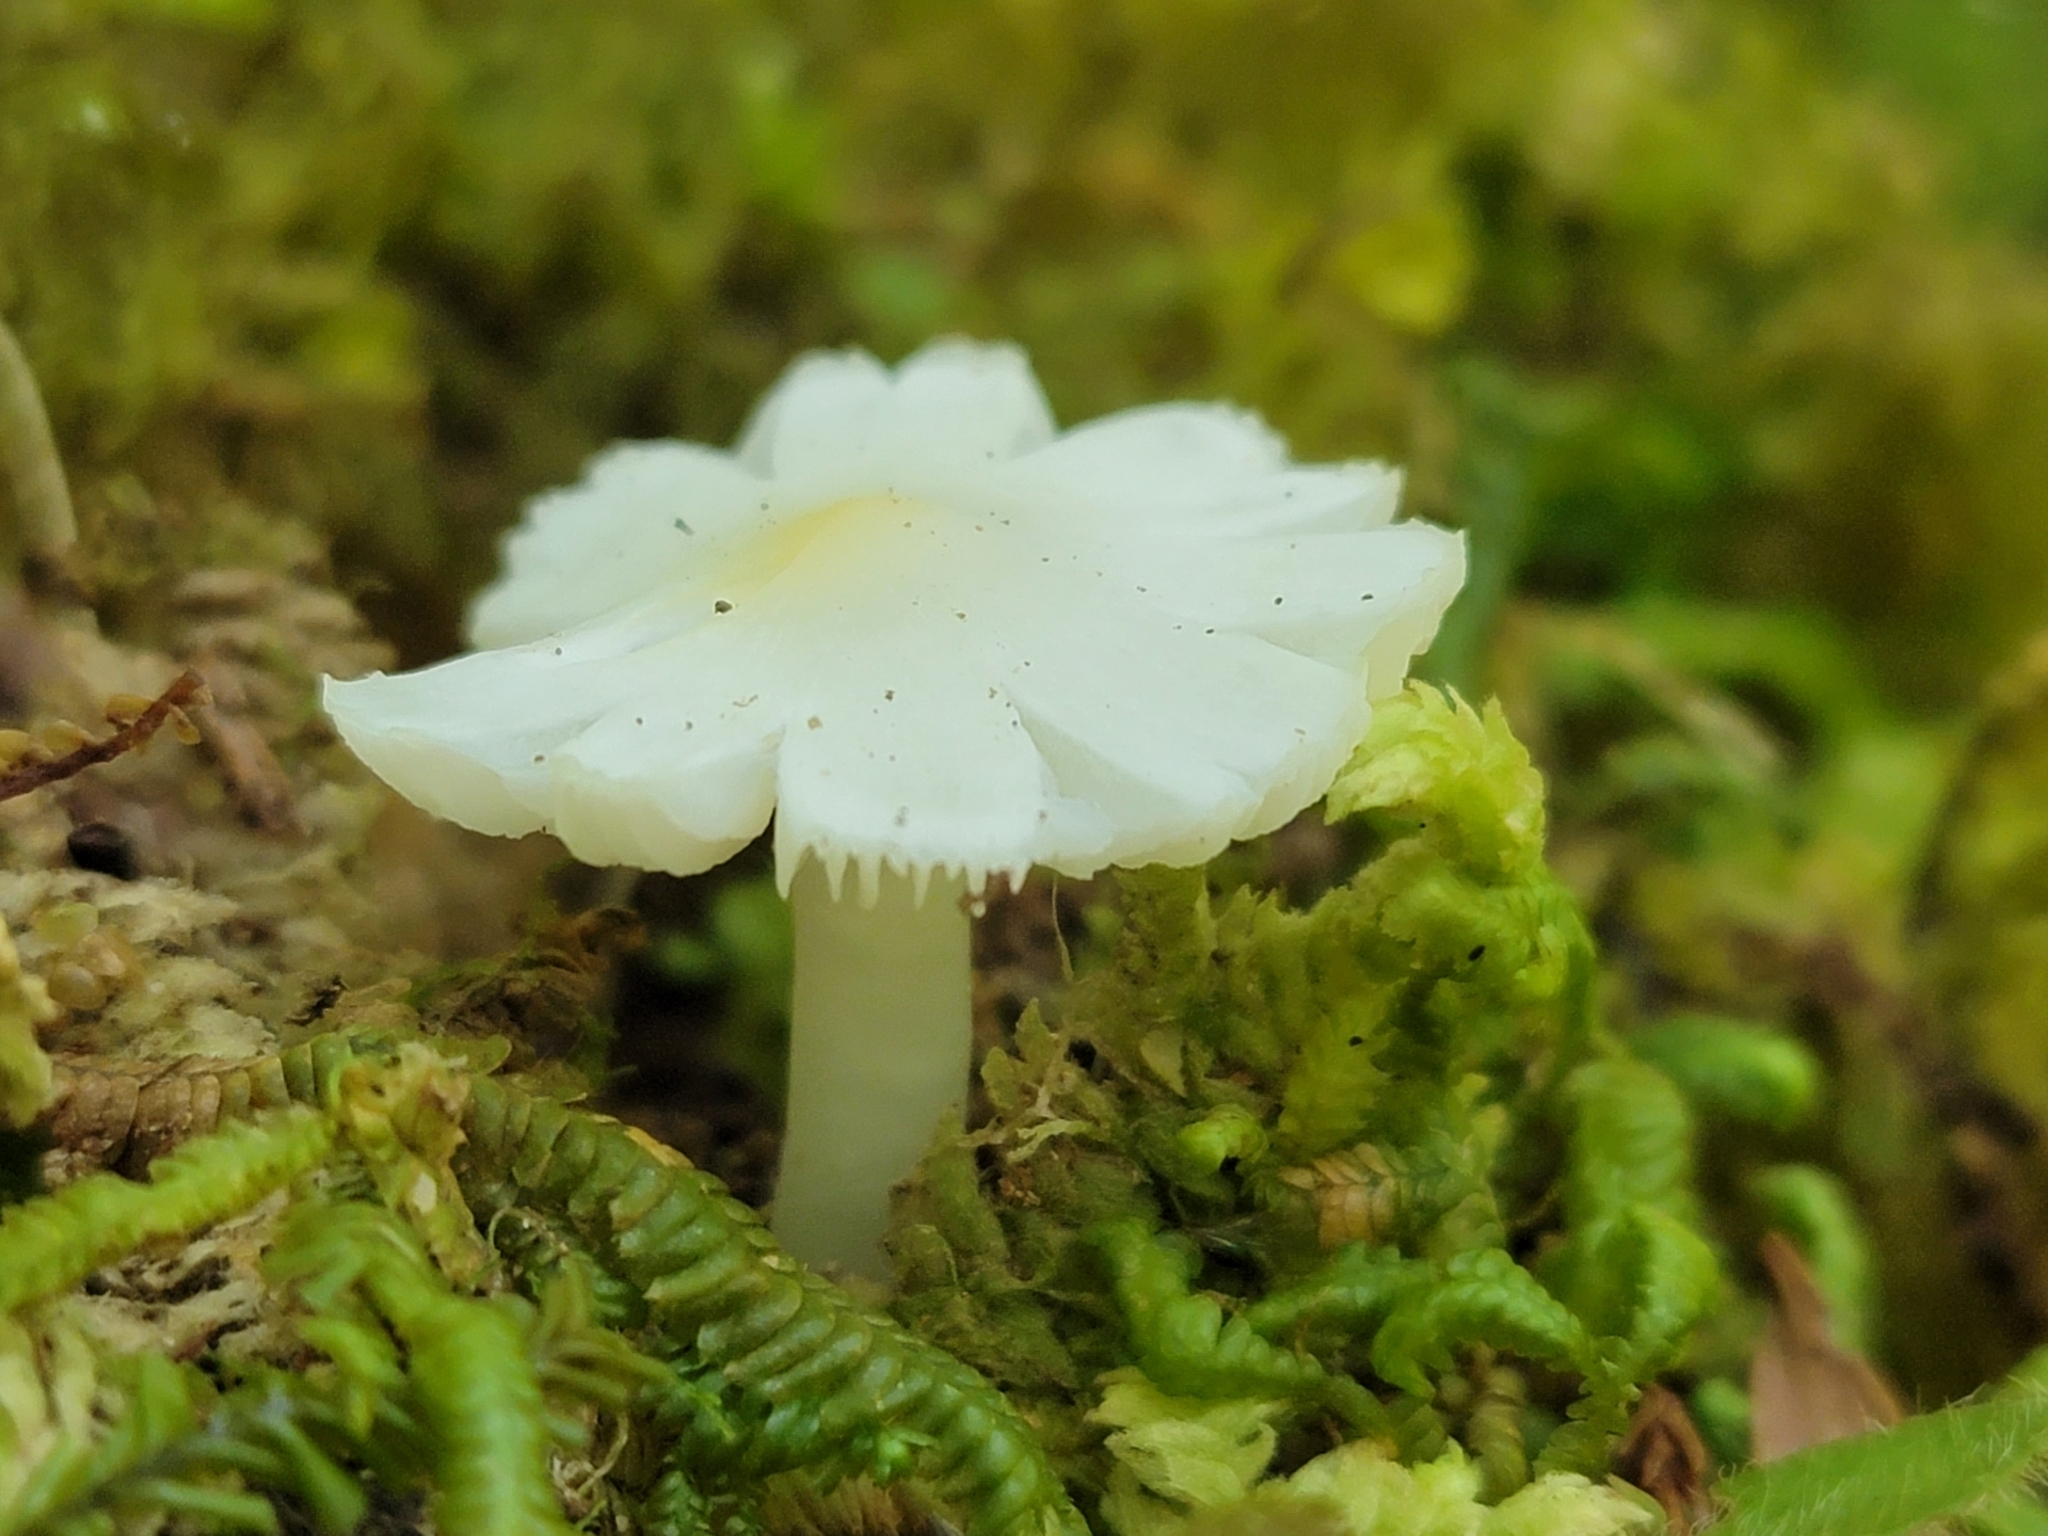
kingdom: Fungi
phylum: Basidiomycota
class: Agaricomycetes
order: Agaricales
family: Hygrophoraceae
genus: Humidicutis
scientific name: Humidicutis mavis
